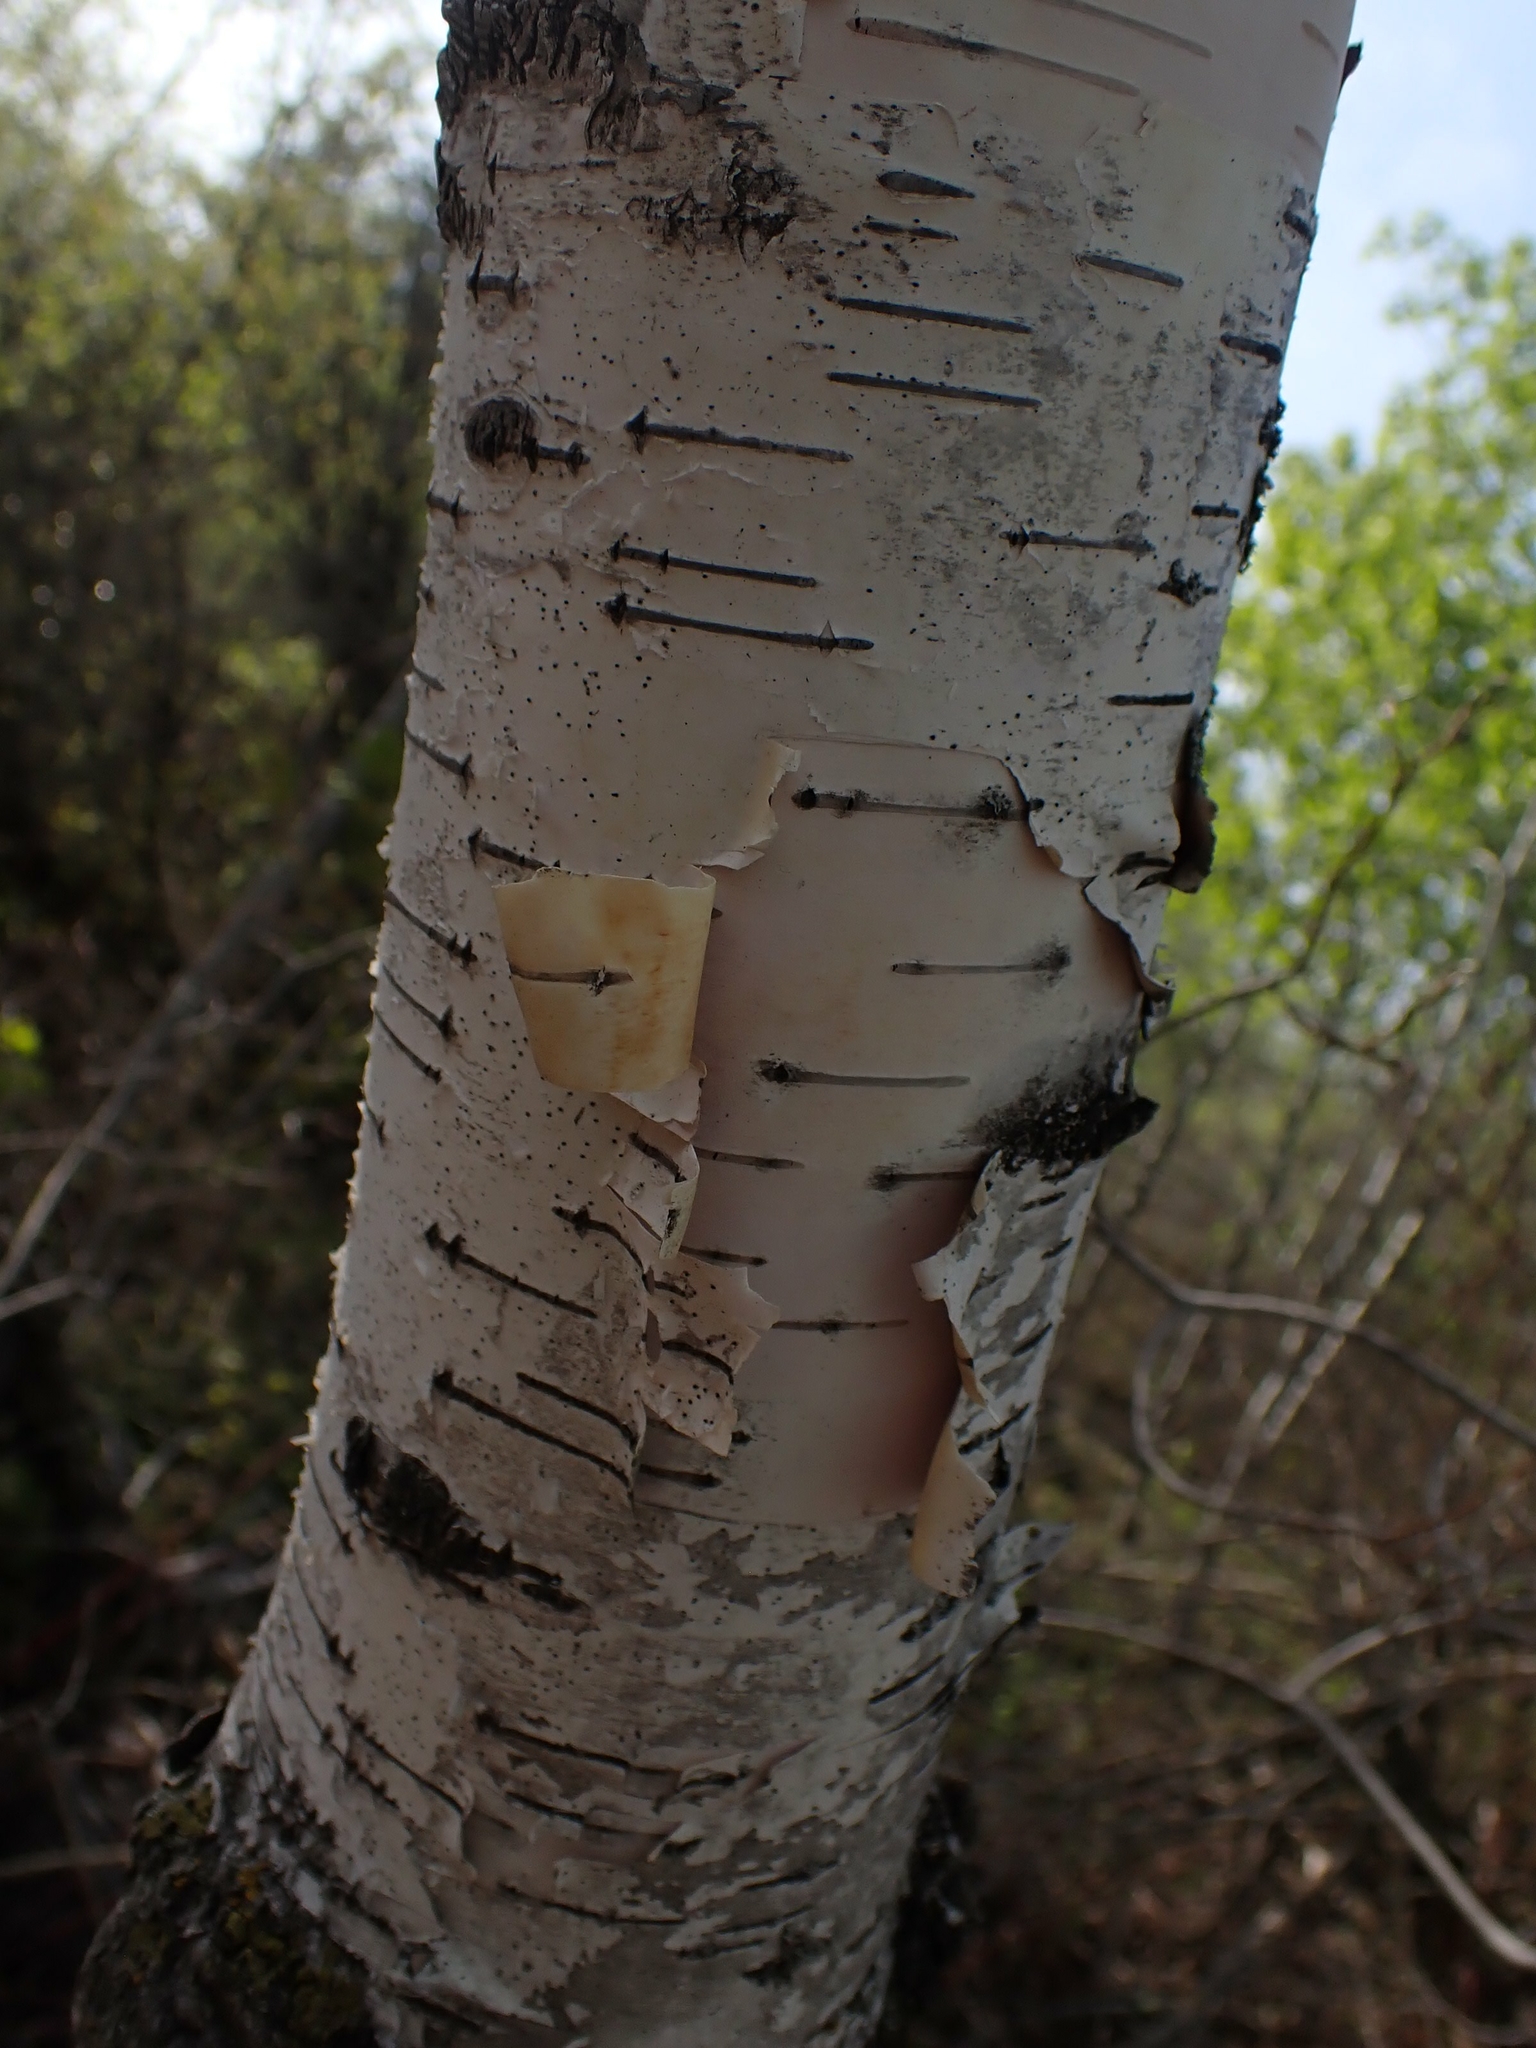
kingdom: Plantae
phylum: Tracheophyta
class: Magnoliopsida
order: Fagales
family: Betulaceae
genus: Betula
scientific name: Betula papyrifera
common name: Paper birch
